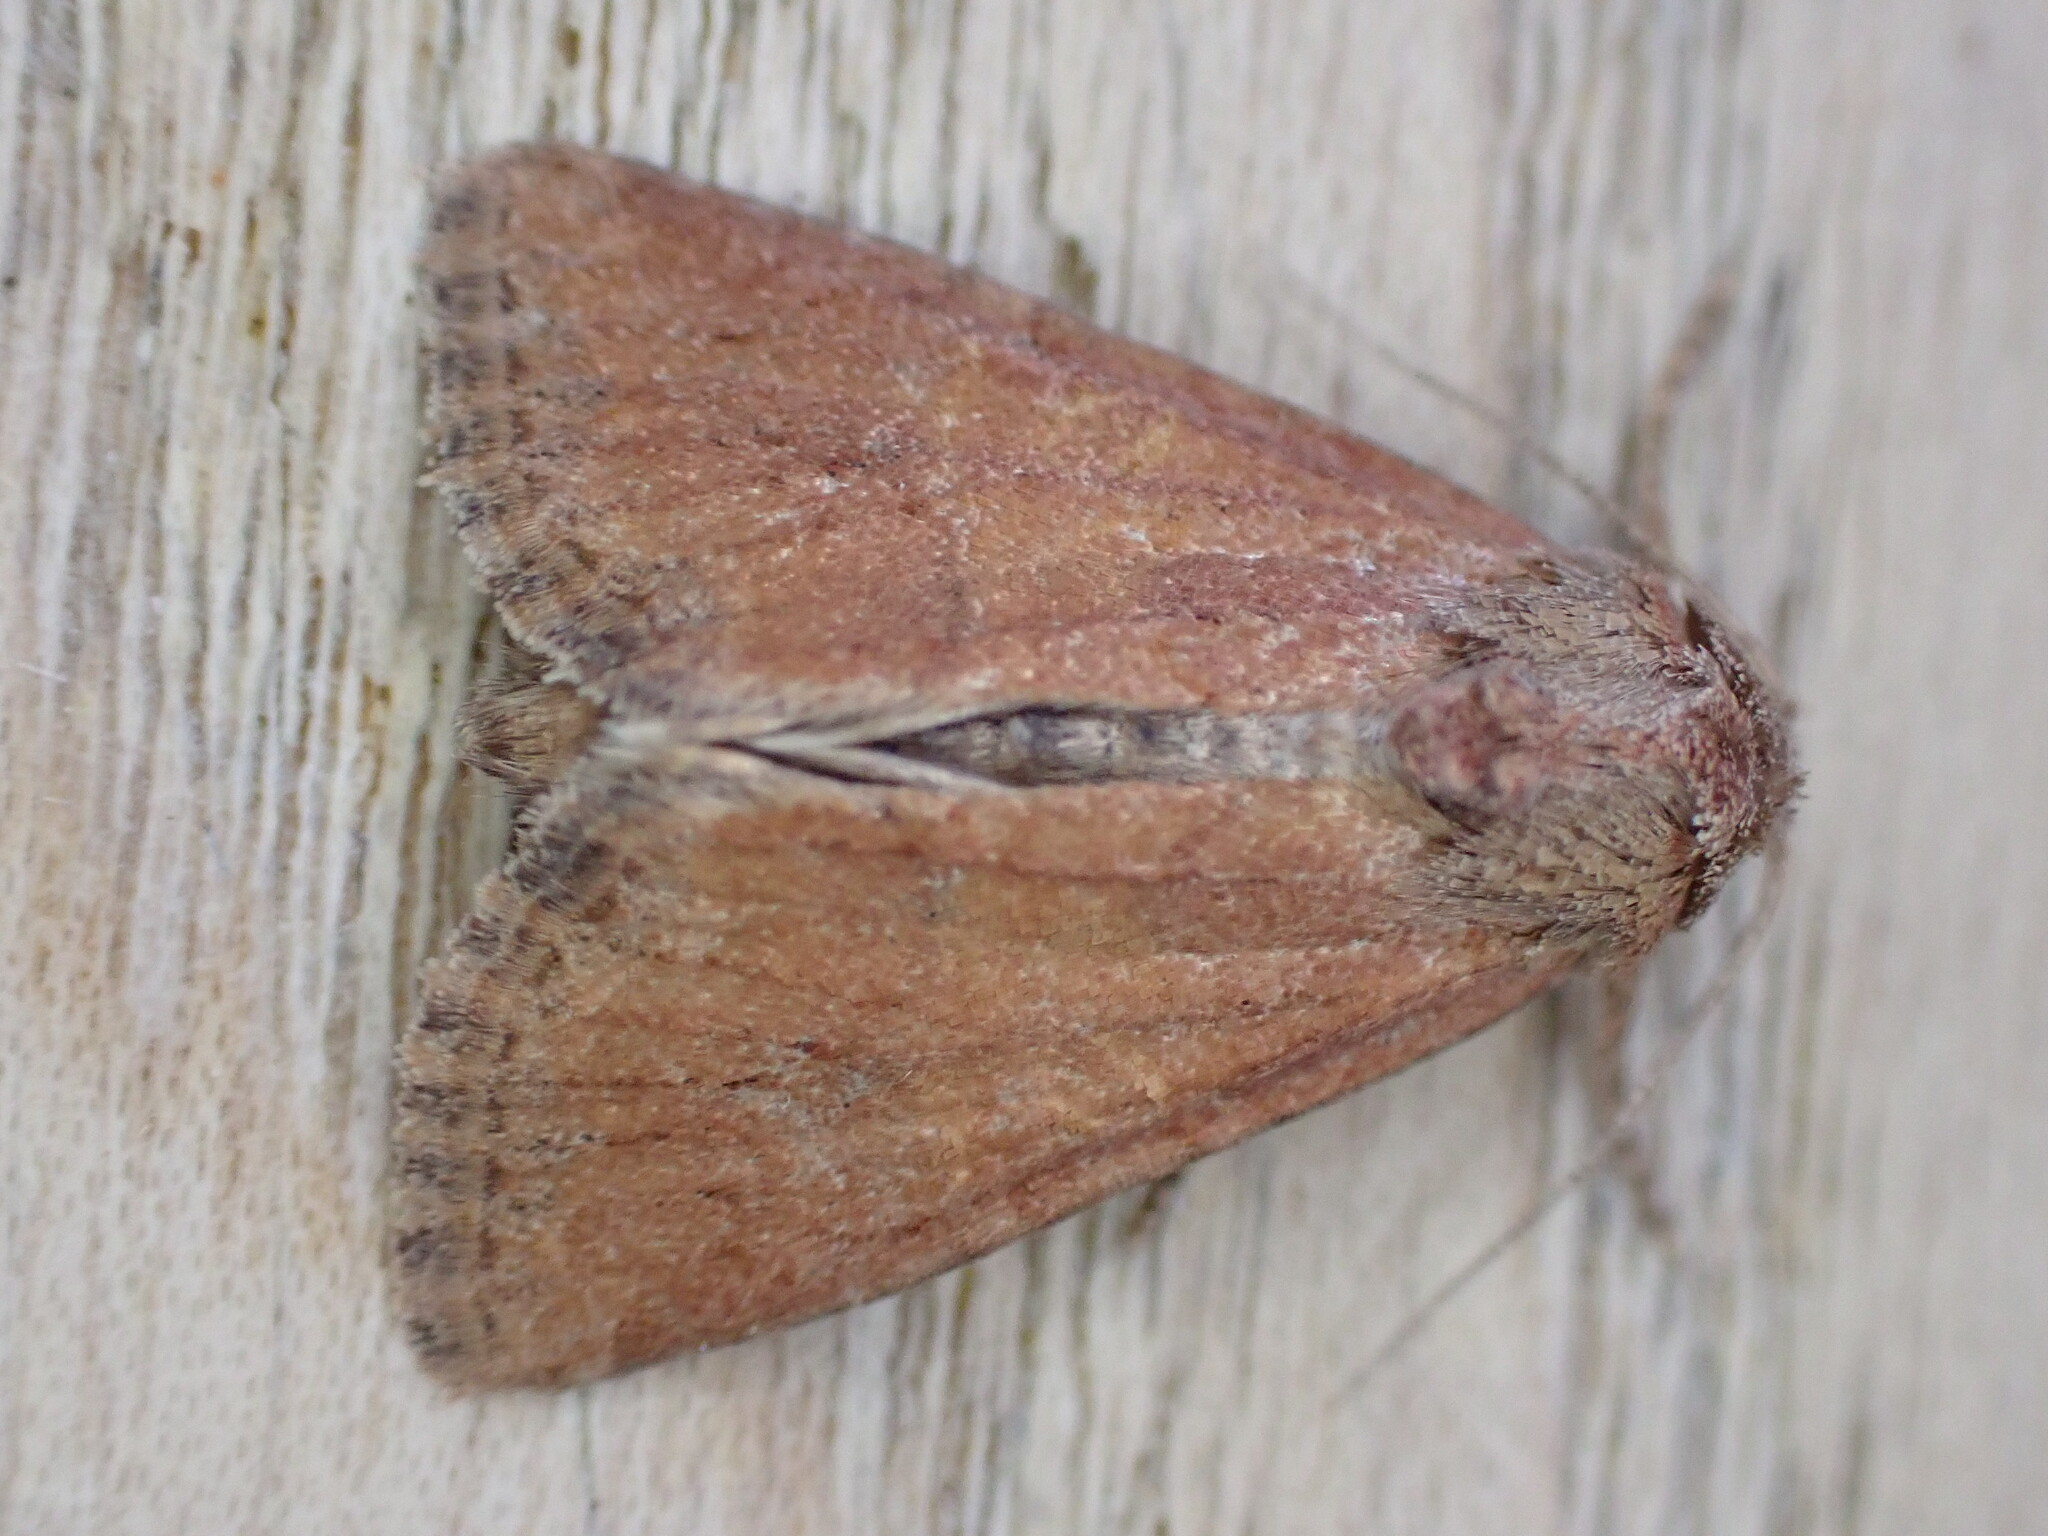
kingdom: Animalia
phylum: Arthropoda
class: Insecta
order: Lepidoptera
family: Noctuidae
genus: Mesoligia
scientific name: Mesoligia furuncula
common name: Cloaked minor
